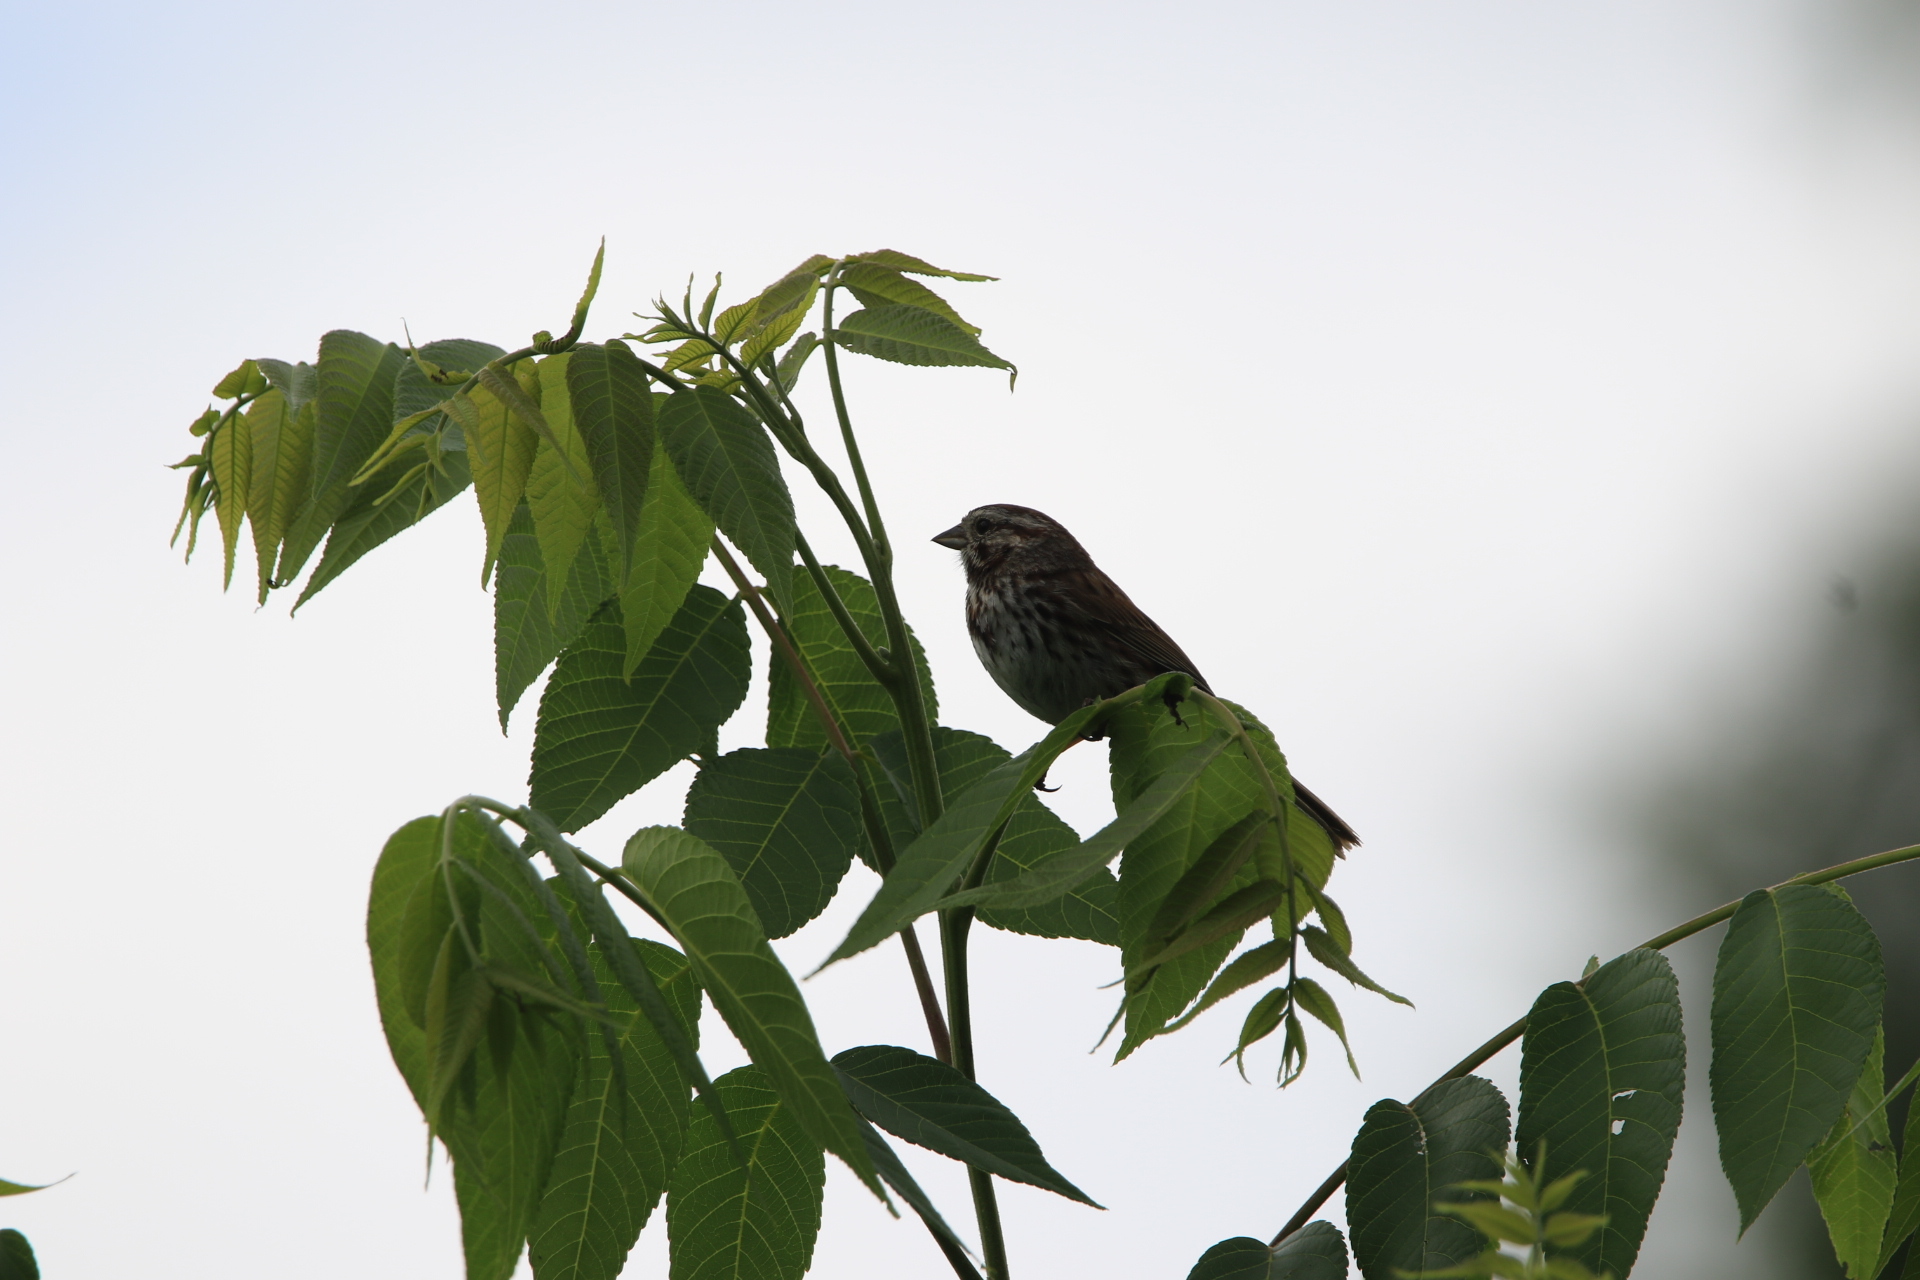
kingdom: Animalia
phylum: Chordata
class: Aves
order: Passeriformes
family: Passerellidae
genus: Melospiza
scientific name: Melospiza melodia
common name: Song sparrow
